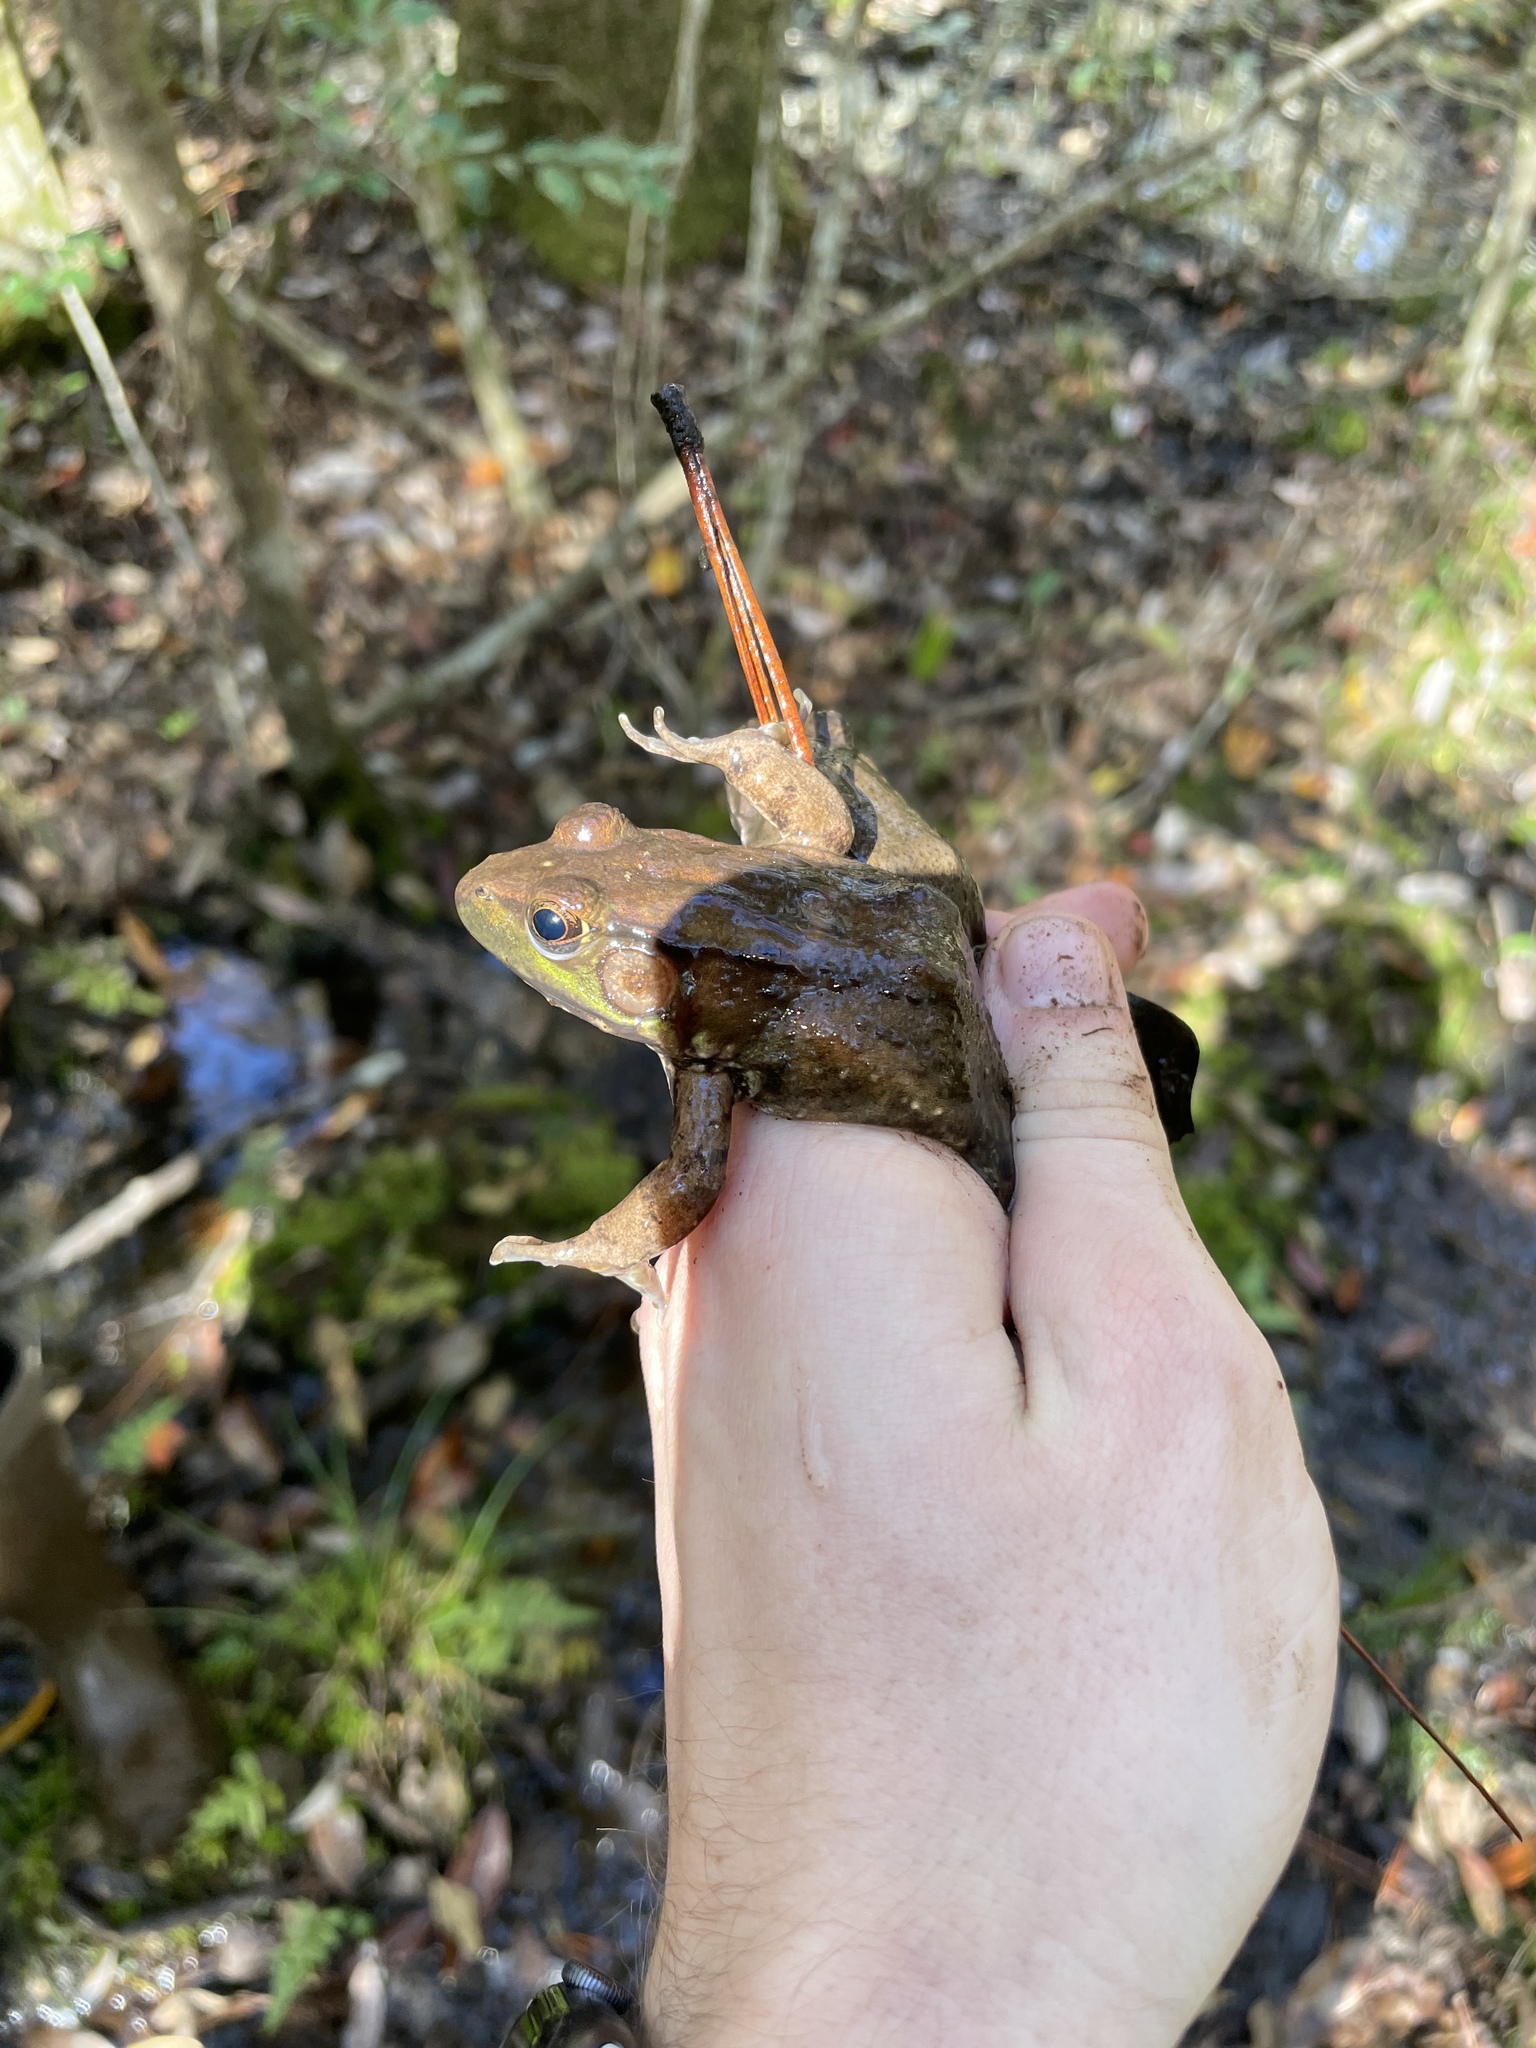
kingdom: Animalia
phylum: Chordata
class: Amphibia
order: Anura
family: Ranidae
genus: Lithobates
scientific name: Lithobates clamitans
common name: Green frog
